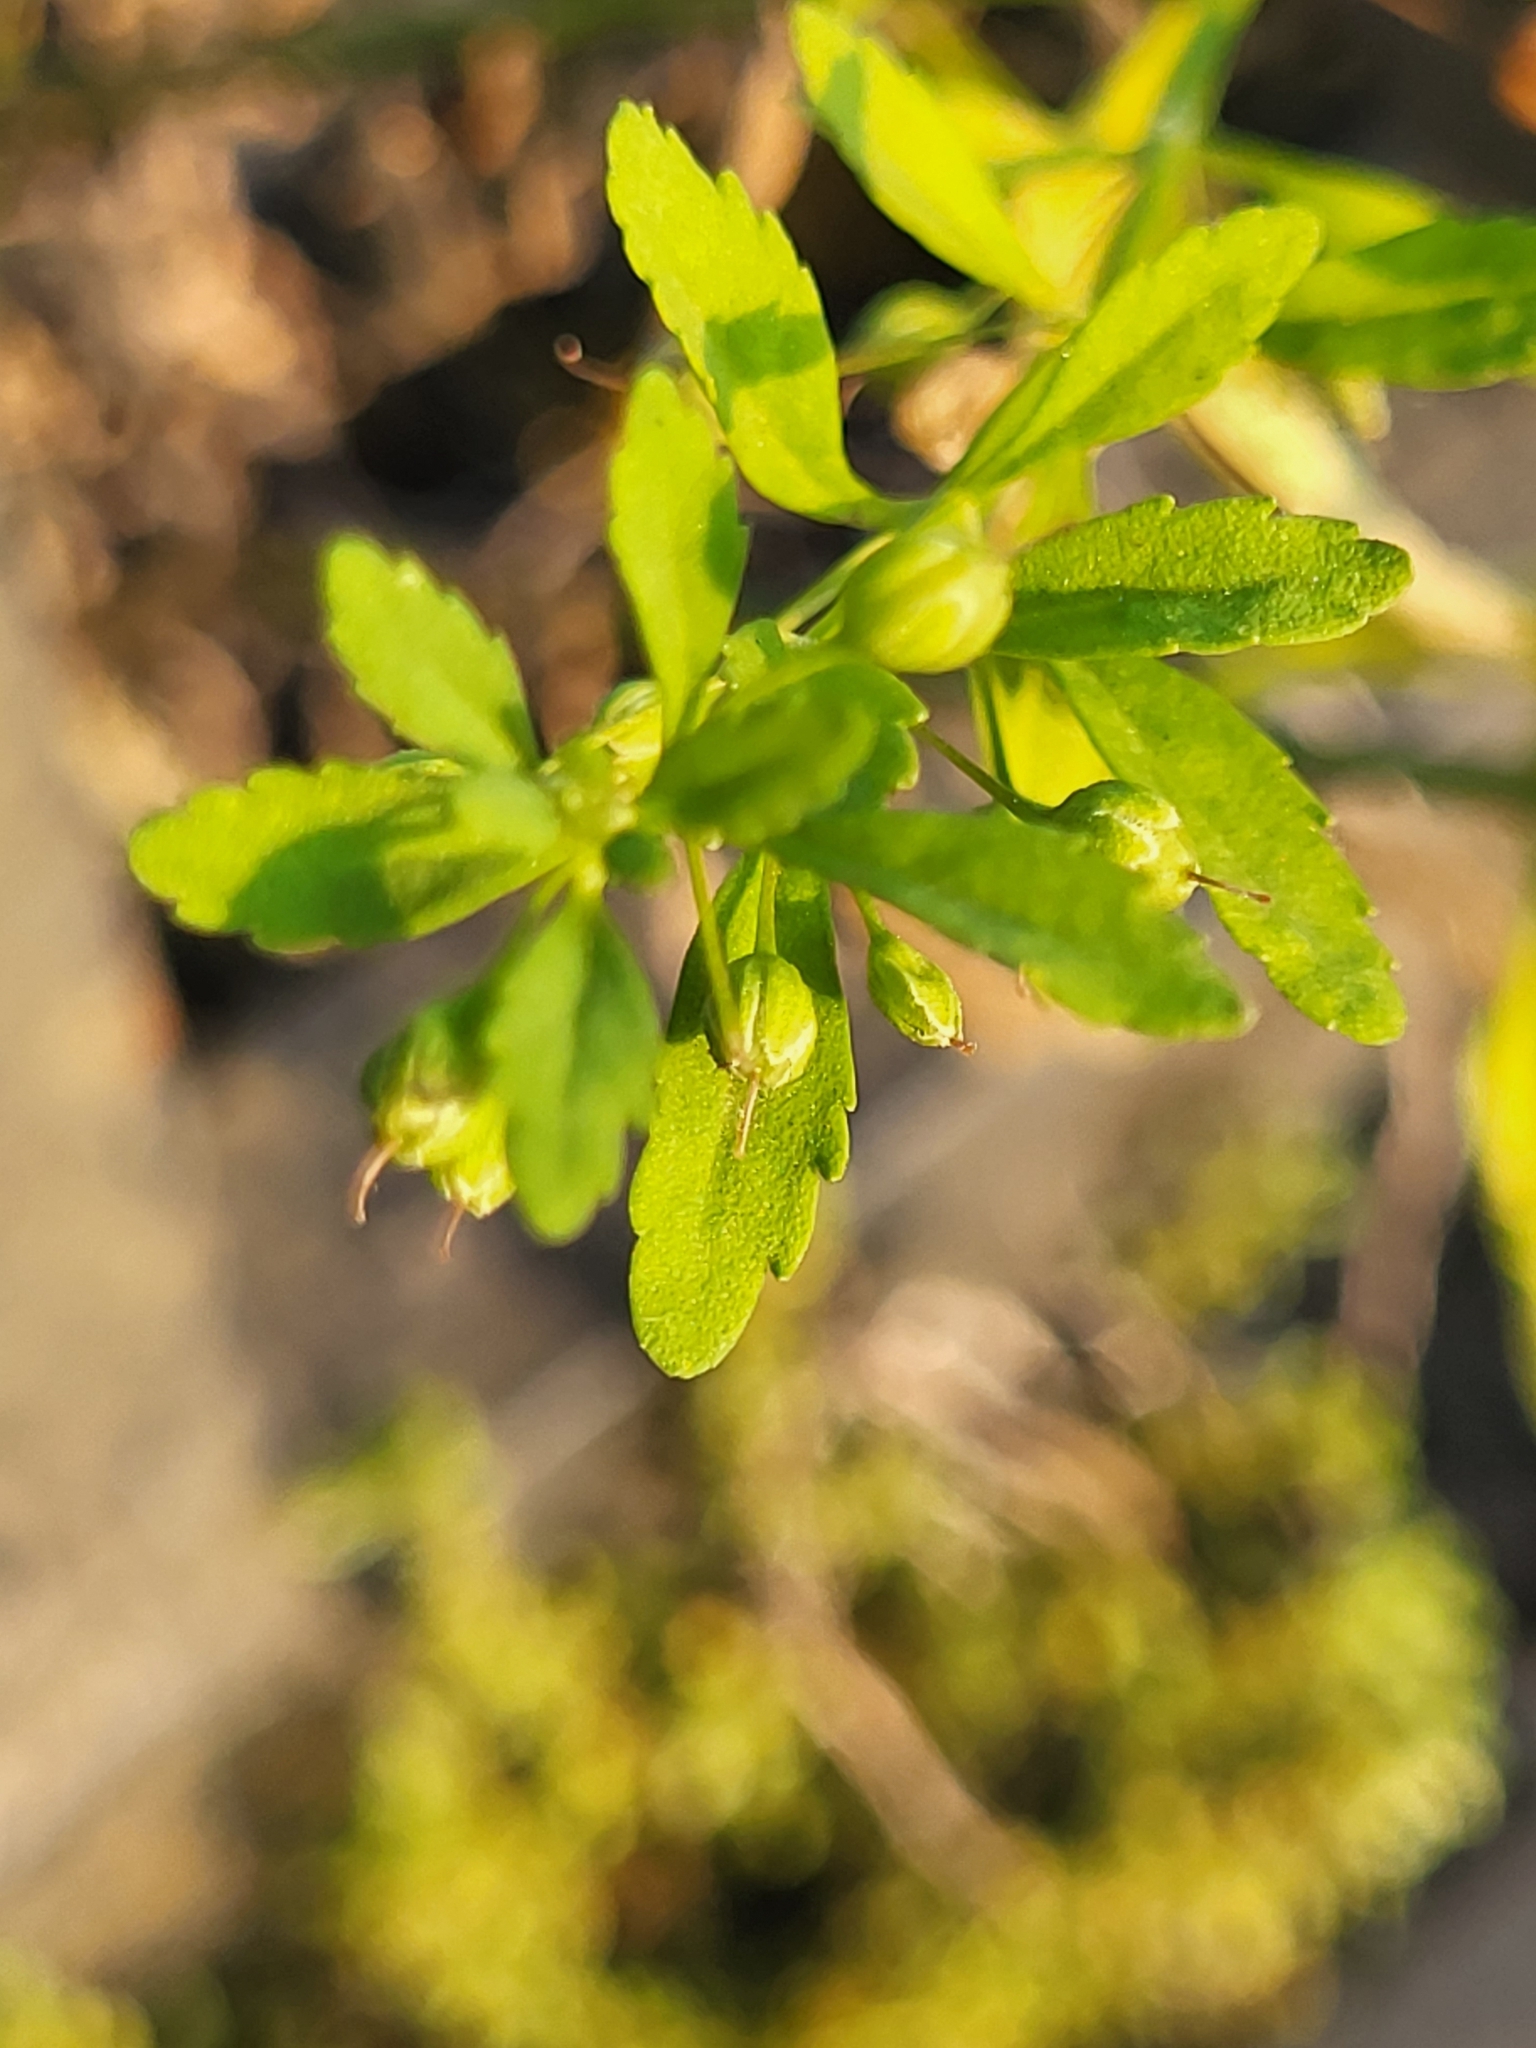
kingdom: Plantae
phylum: Tracheophyta
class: Magnoliopsida
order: Lamiales
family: Plantaginaceae
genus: Scoparia
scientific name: Scoparia dulcis
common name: Scoparia-weed
